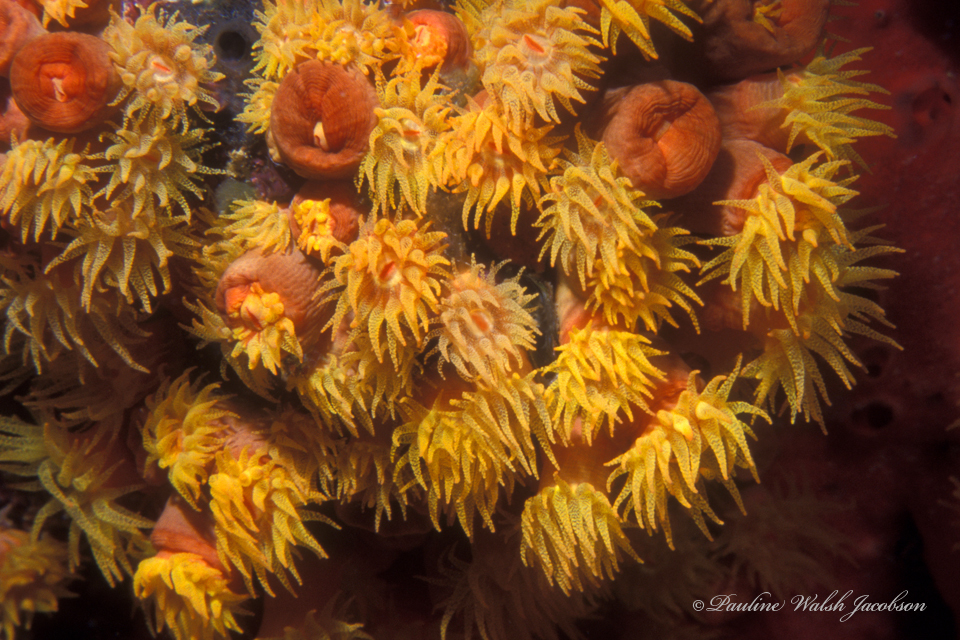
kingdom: Animalia
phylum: Cnidaria
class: Anthozoa
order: Scleractinia
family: Dendrophylliidae
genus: Tubastraea
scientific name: Tubastraea coccinea
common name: Orange cup coral
